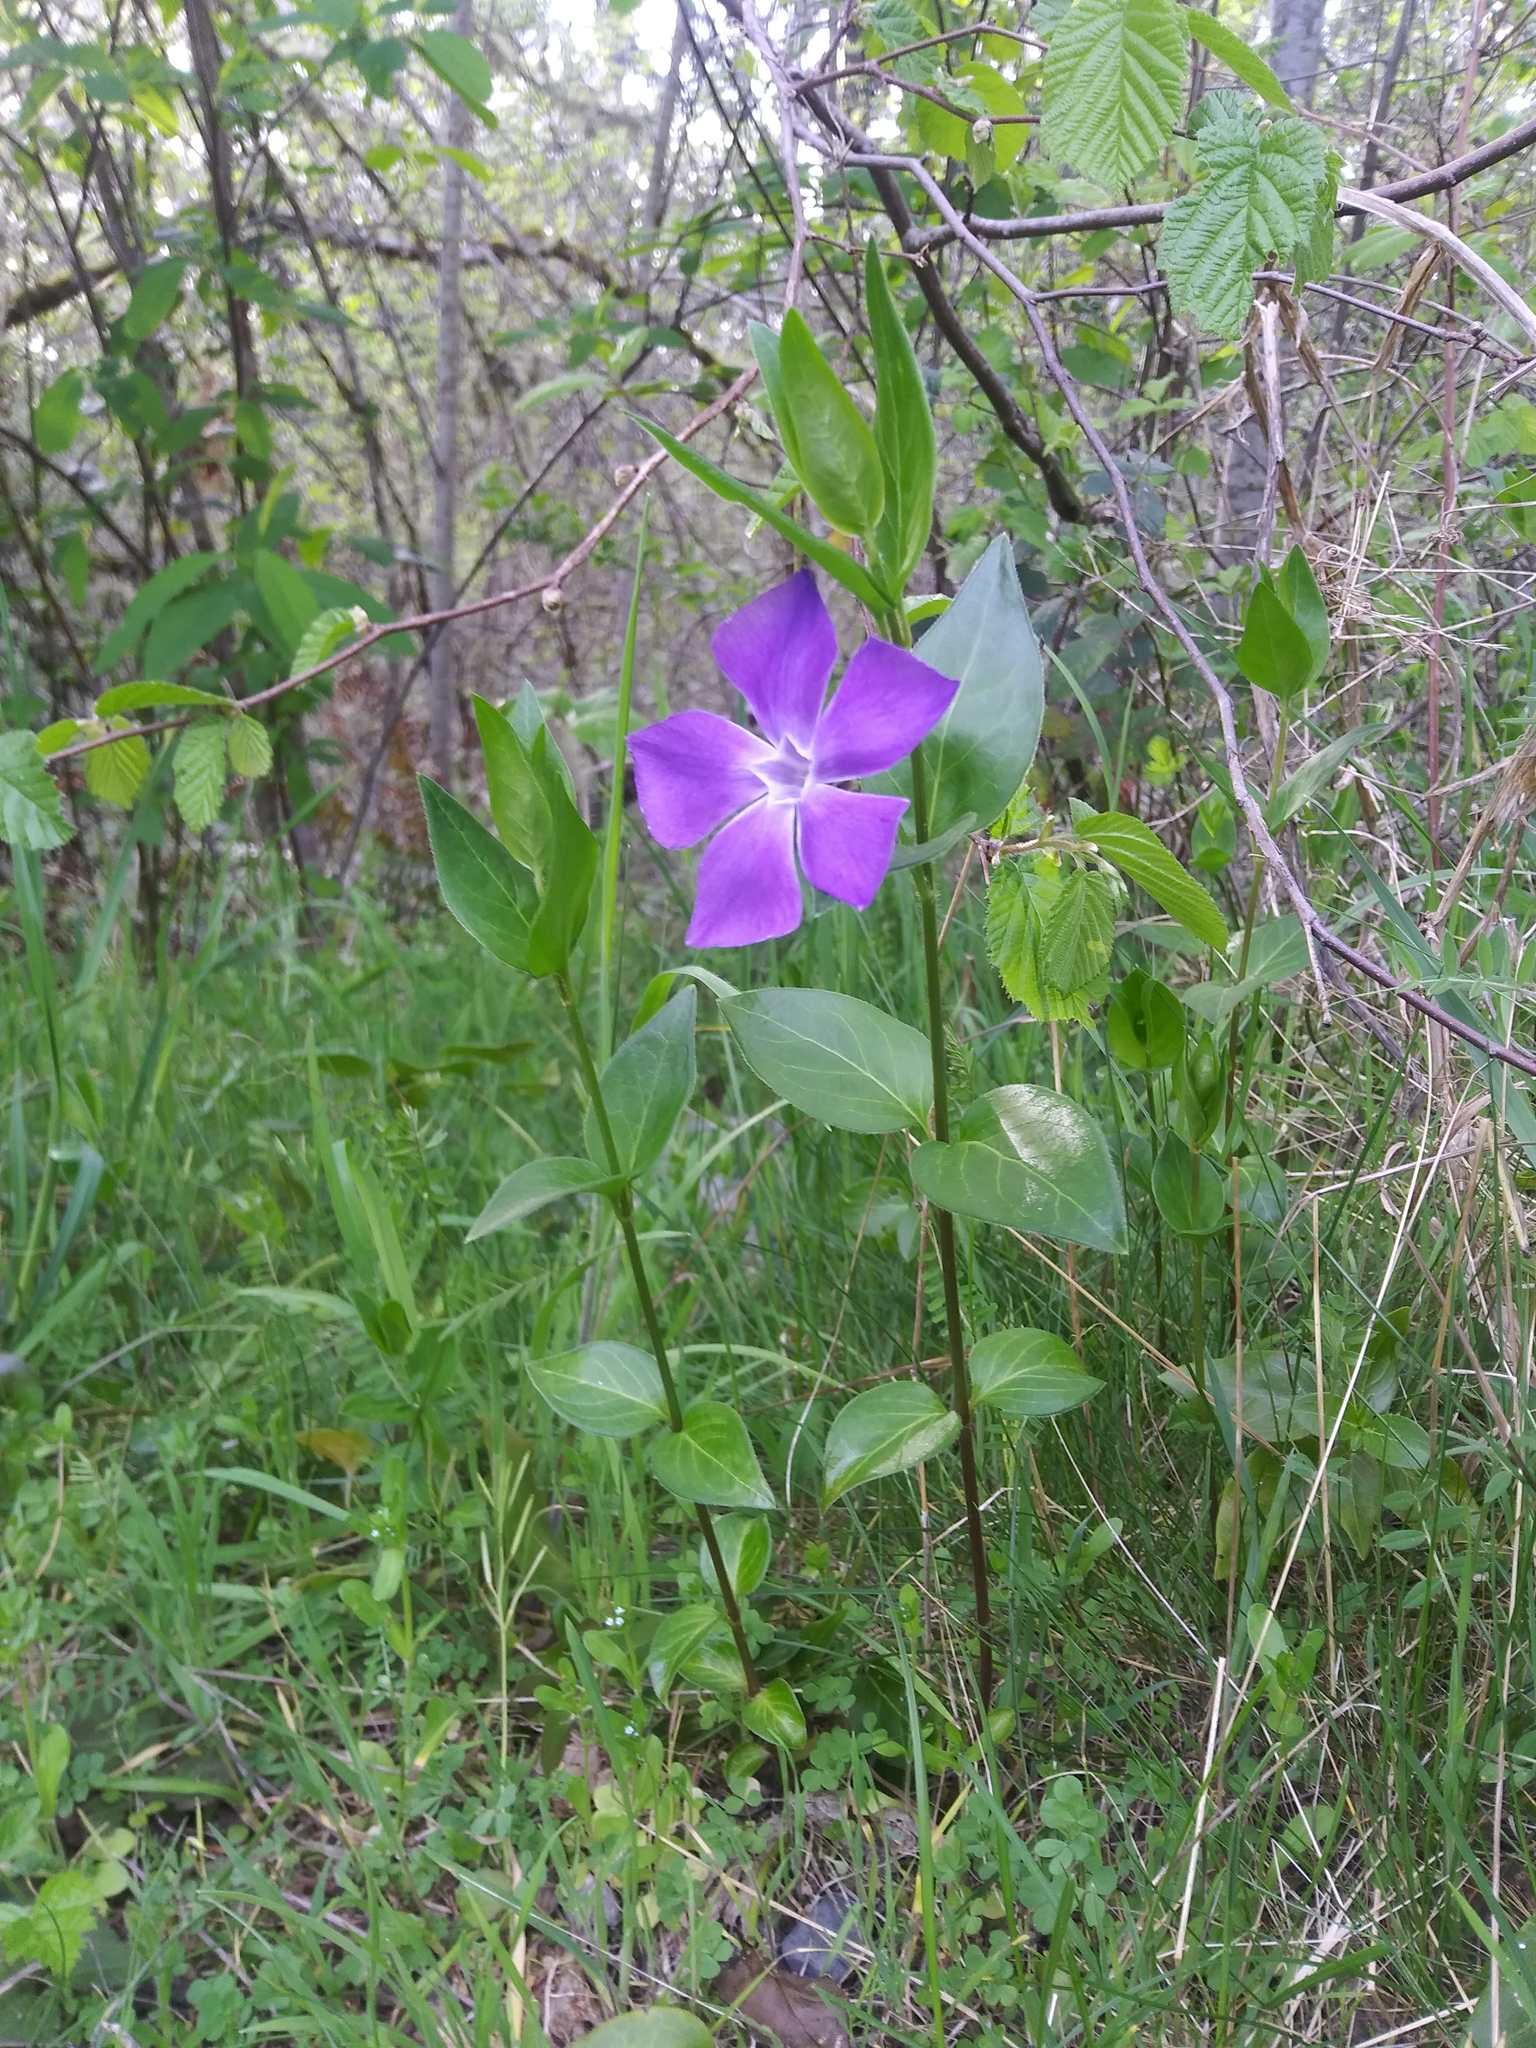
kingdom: Plantae
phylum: Tracheophyta
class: Magnoliopsida
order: Gentianales
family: Apocynaceae
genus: Vinca
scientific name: Vinca major
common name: Greater periwinkle
